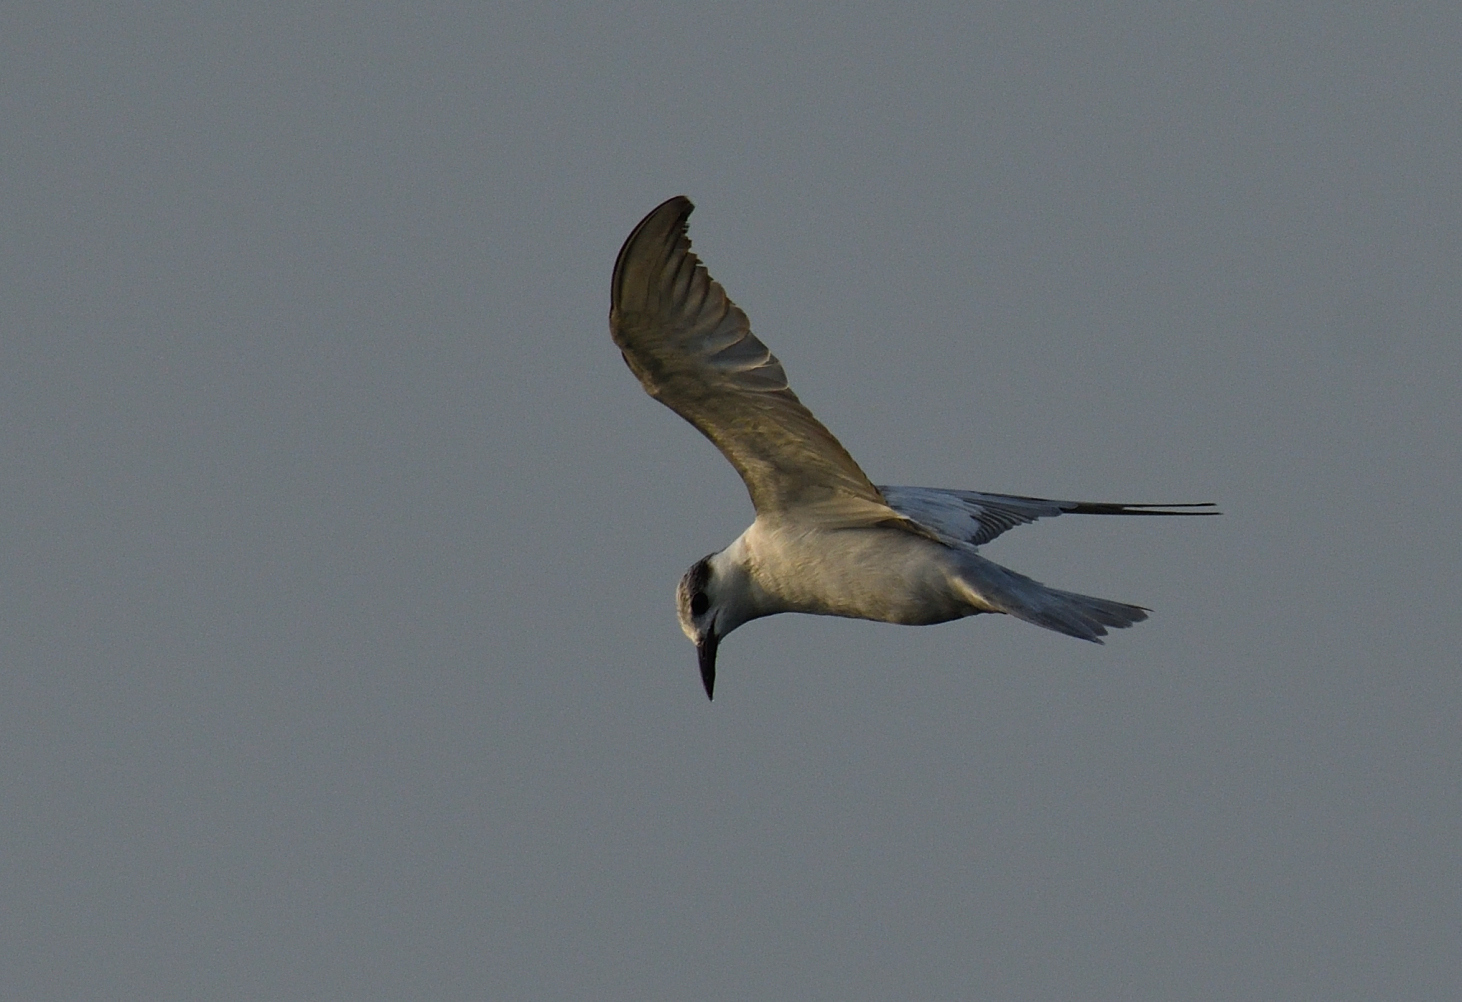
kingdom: Animalia
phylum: Chordata
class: Aves
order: Charadriiformes
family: Laridae
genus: Chlidonias
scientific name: Chlidonias hybrida
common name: Whiskered tern
